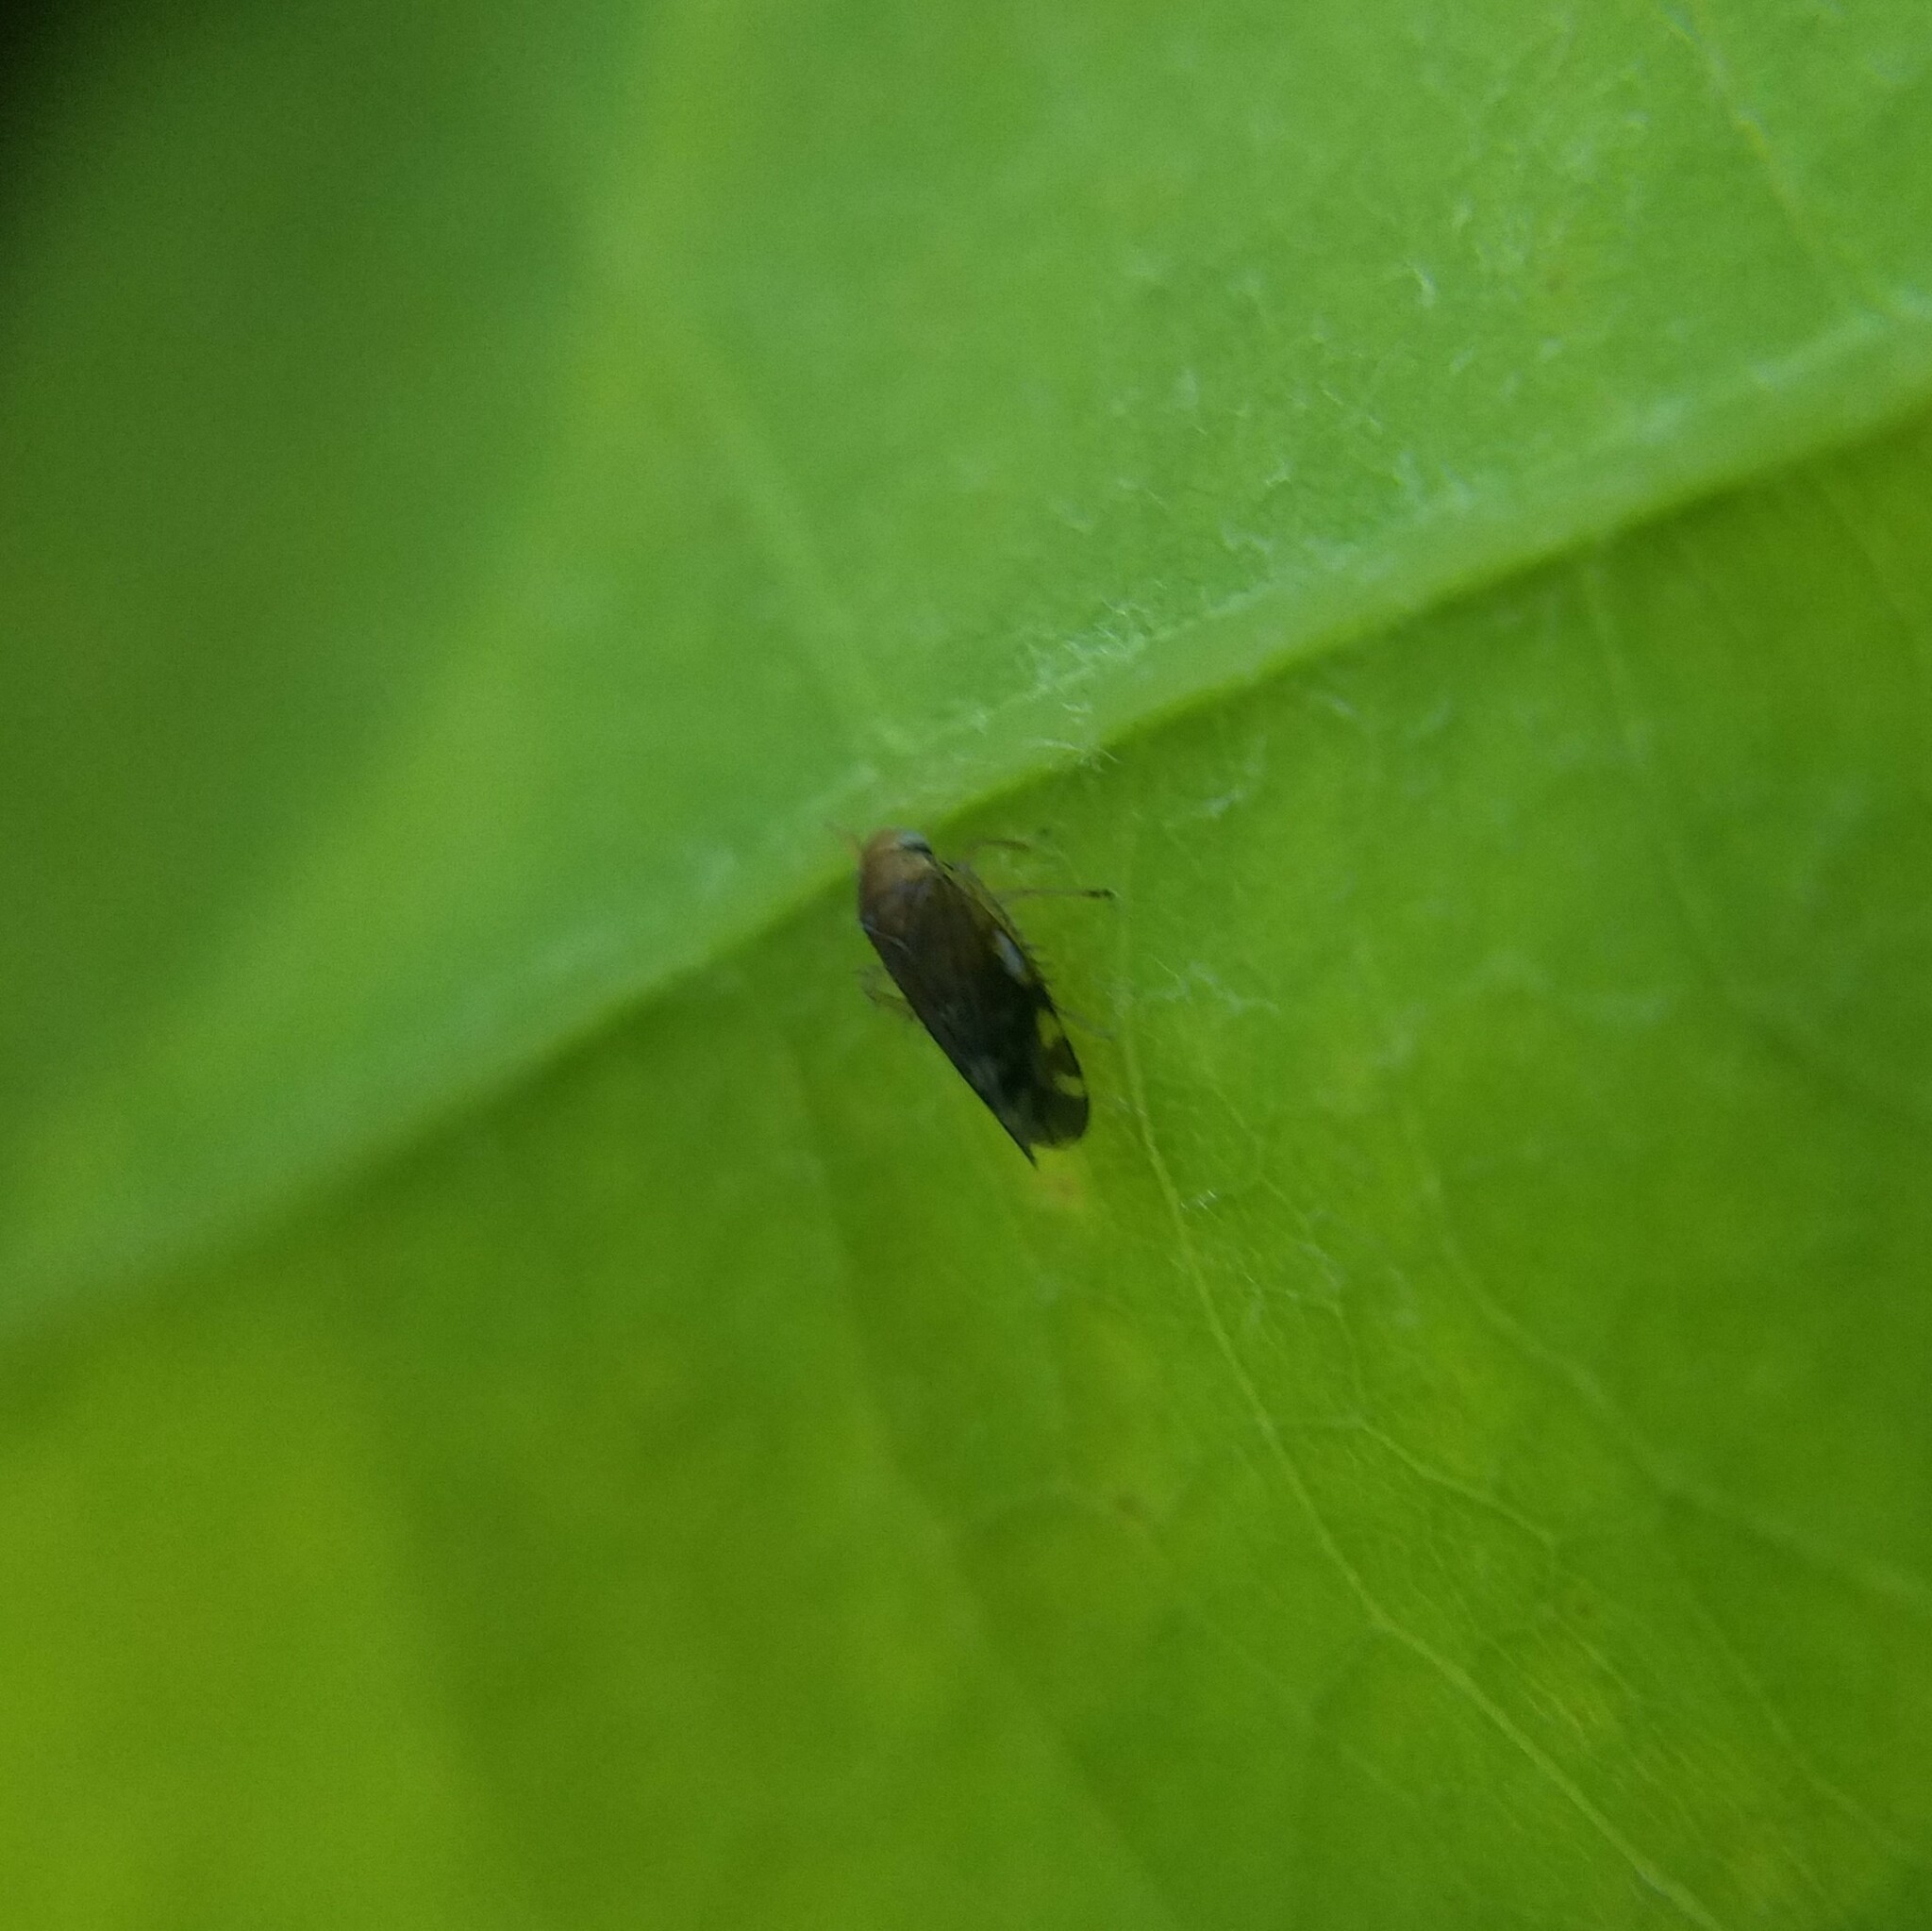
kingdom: Animalia
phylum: Arthropoda
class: Insecta
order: Hemiptera
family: Cicadellidae
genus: Xestocephalus
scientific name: Xestocephalus desertorum
